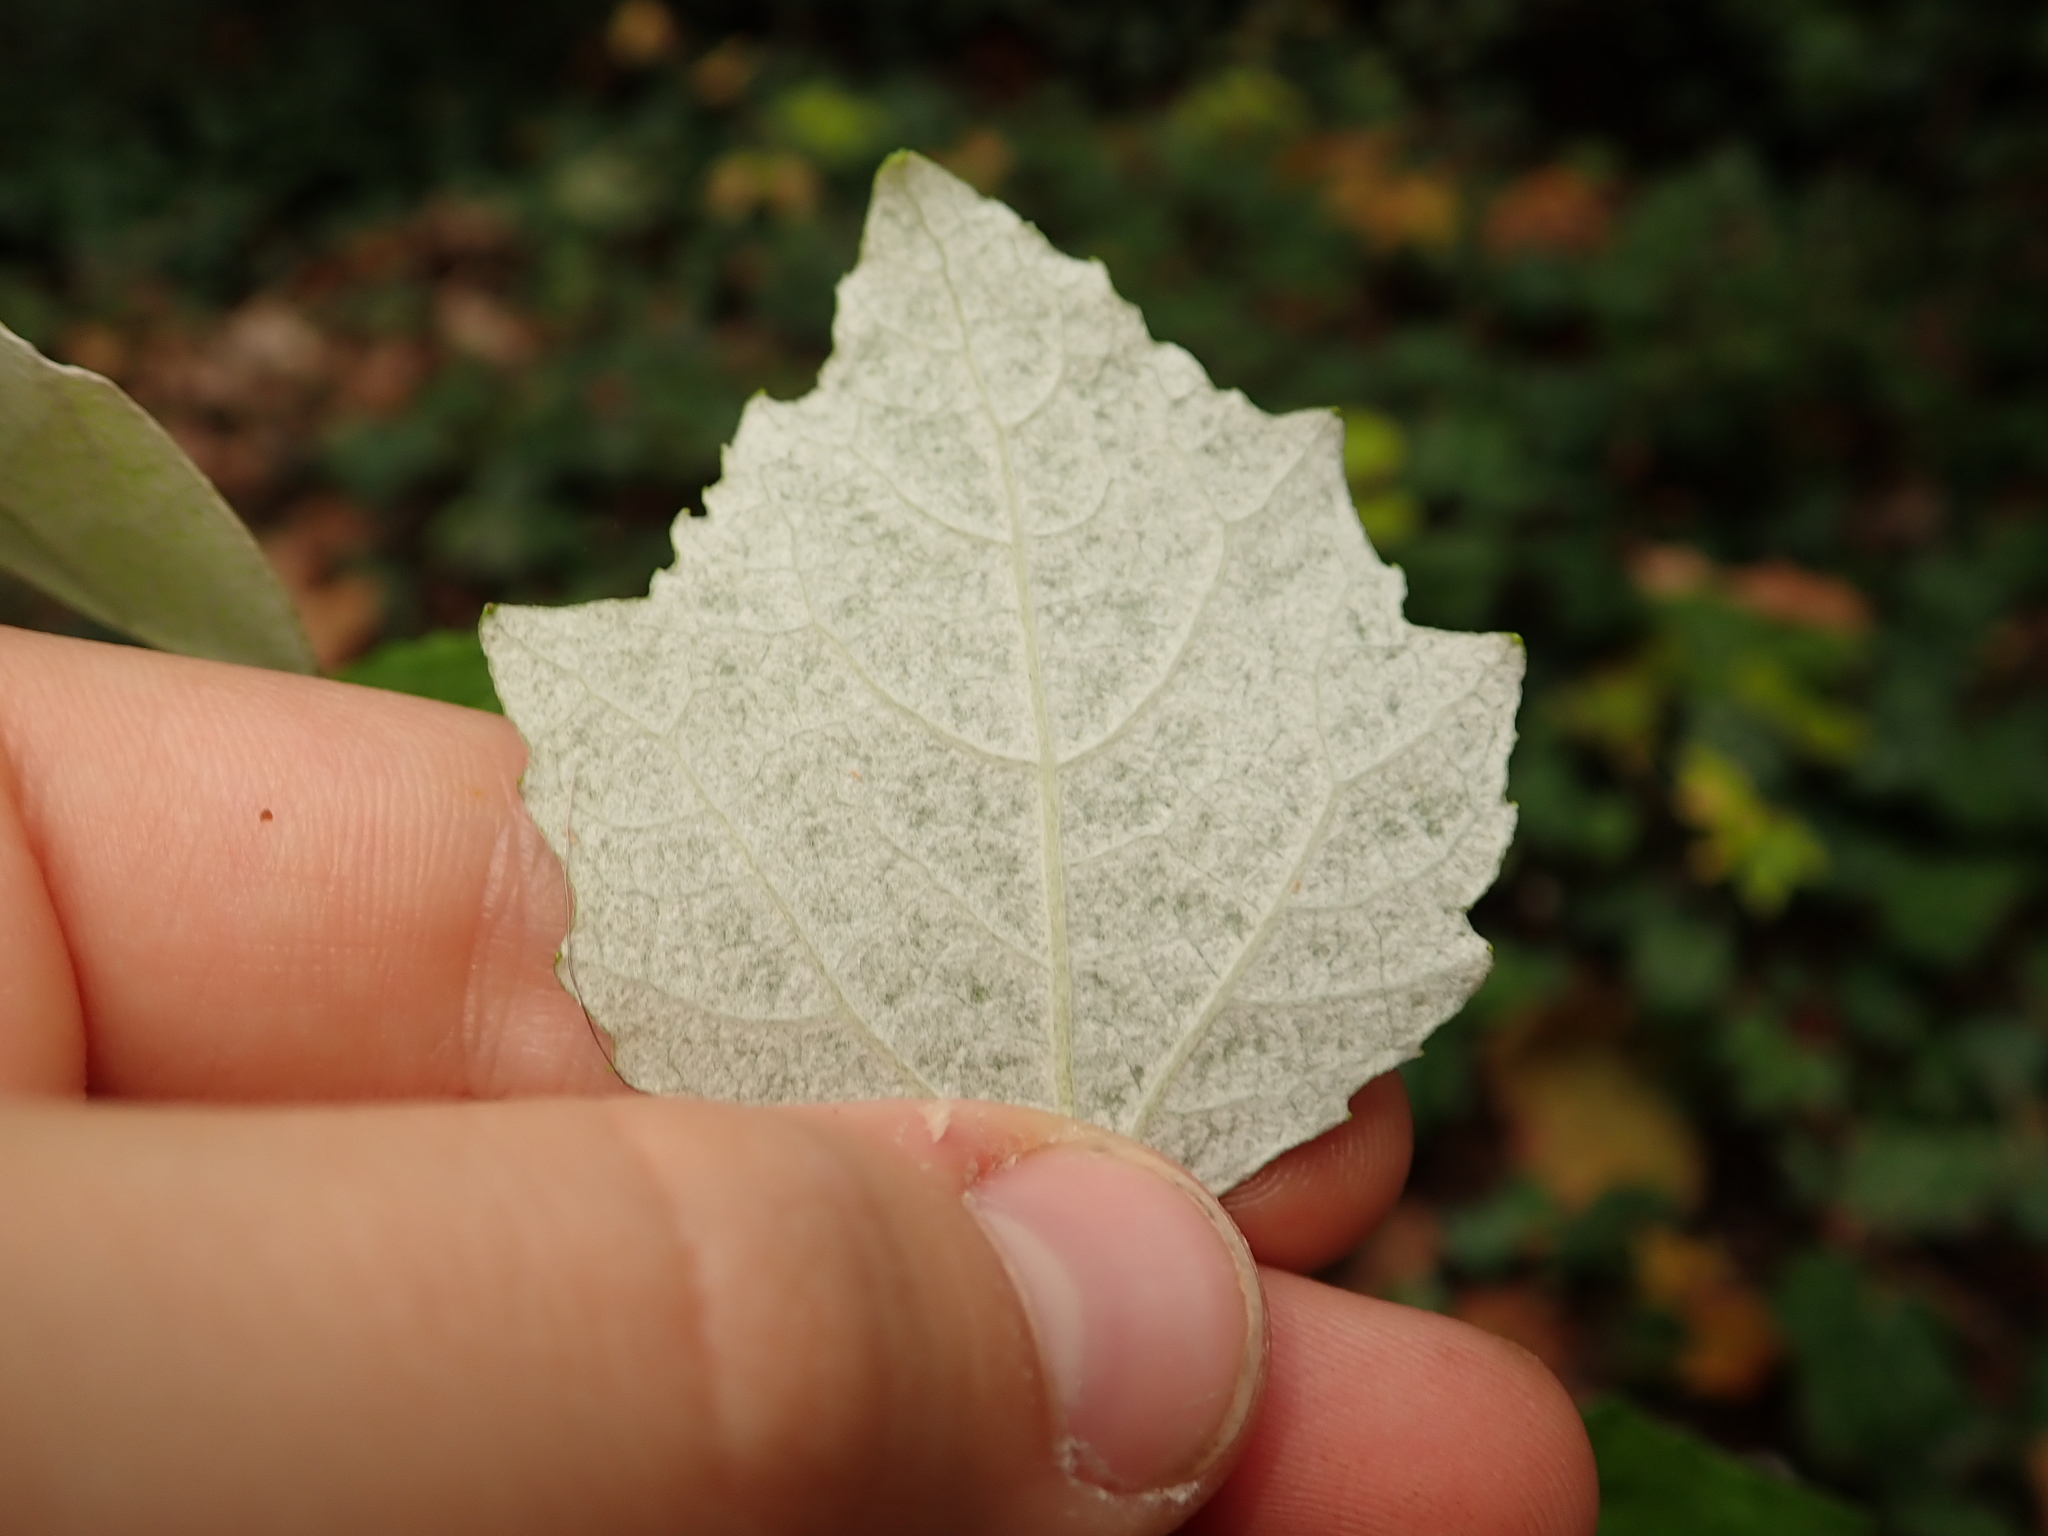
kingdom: Plantae
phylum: Tracheophyta
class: Magnoliopsida
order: Malpighiales
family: Salicaceae
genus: Populus
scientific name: Populus alba
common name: White poplar
